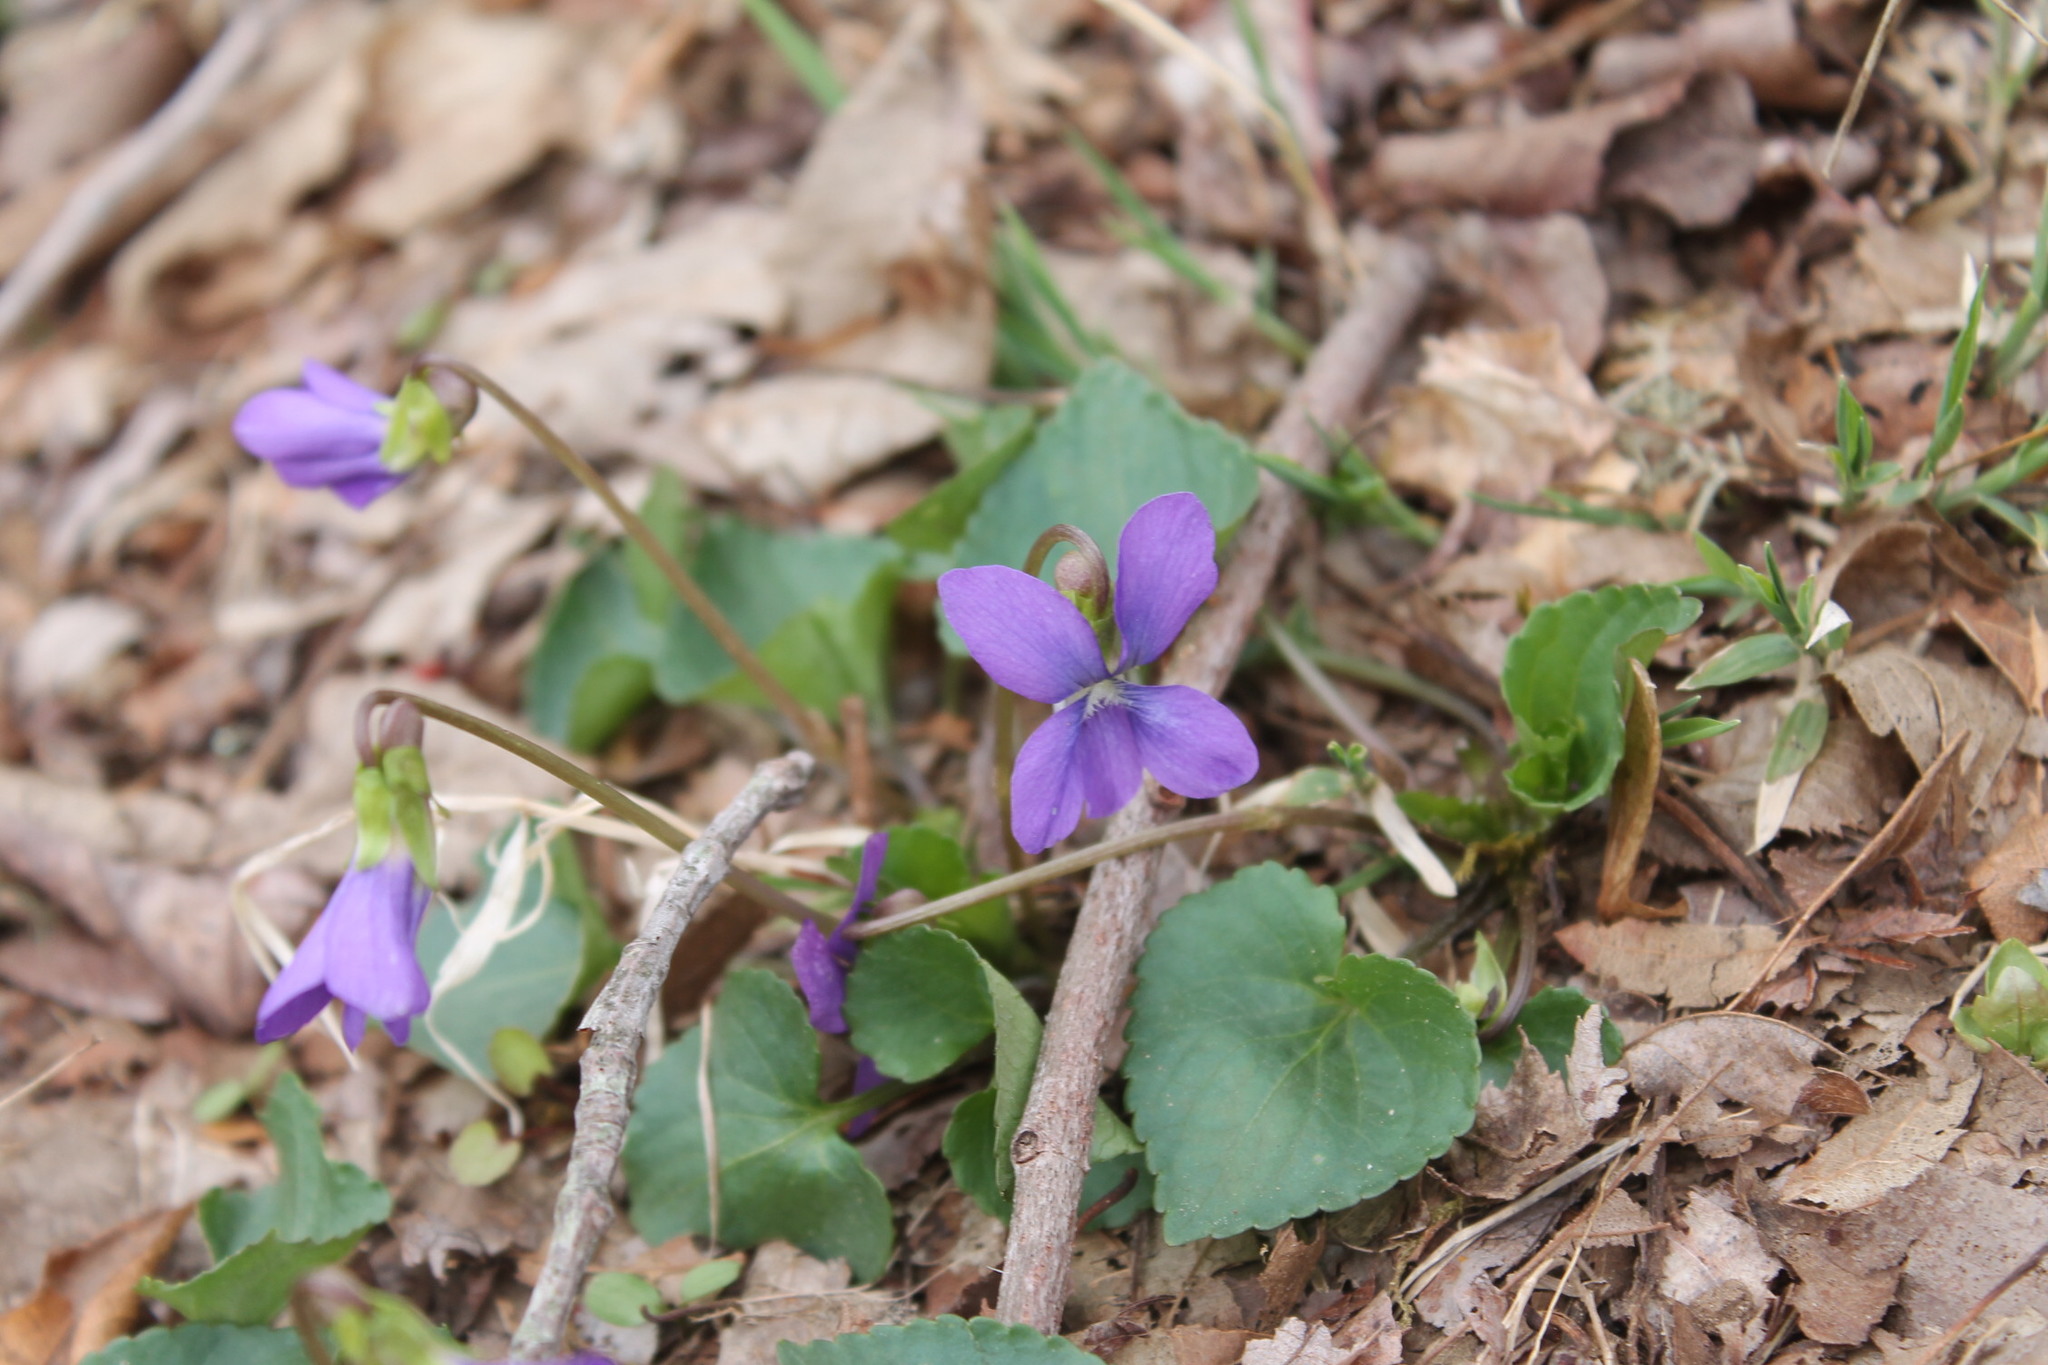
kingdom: Plantae
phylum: Tracheophyta
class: Magnoliopsida
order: Malpighiales
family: Violaceae
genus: Viola
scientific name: Viola sororia
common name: Dooryard violet
